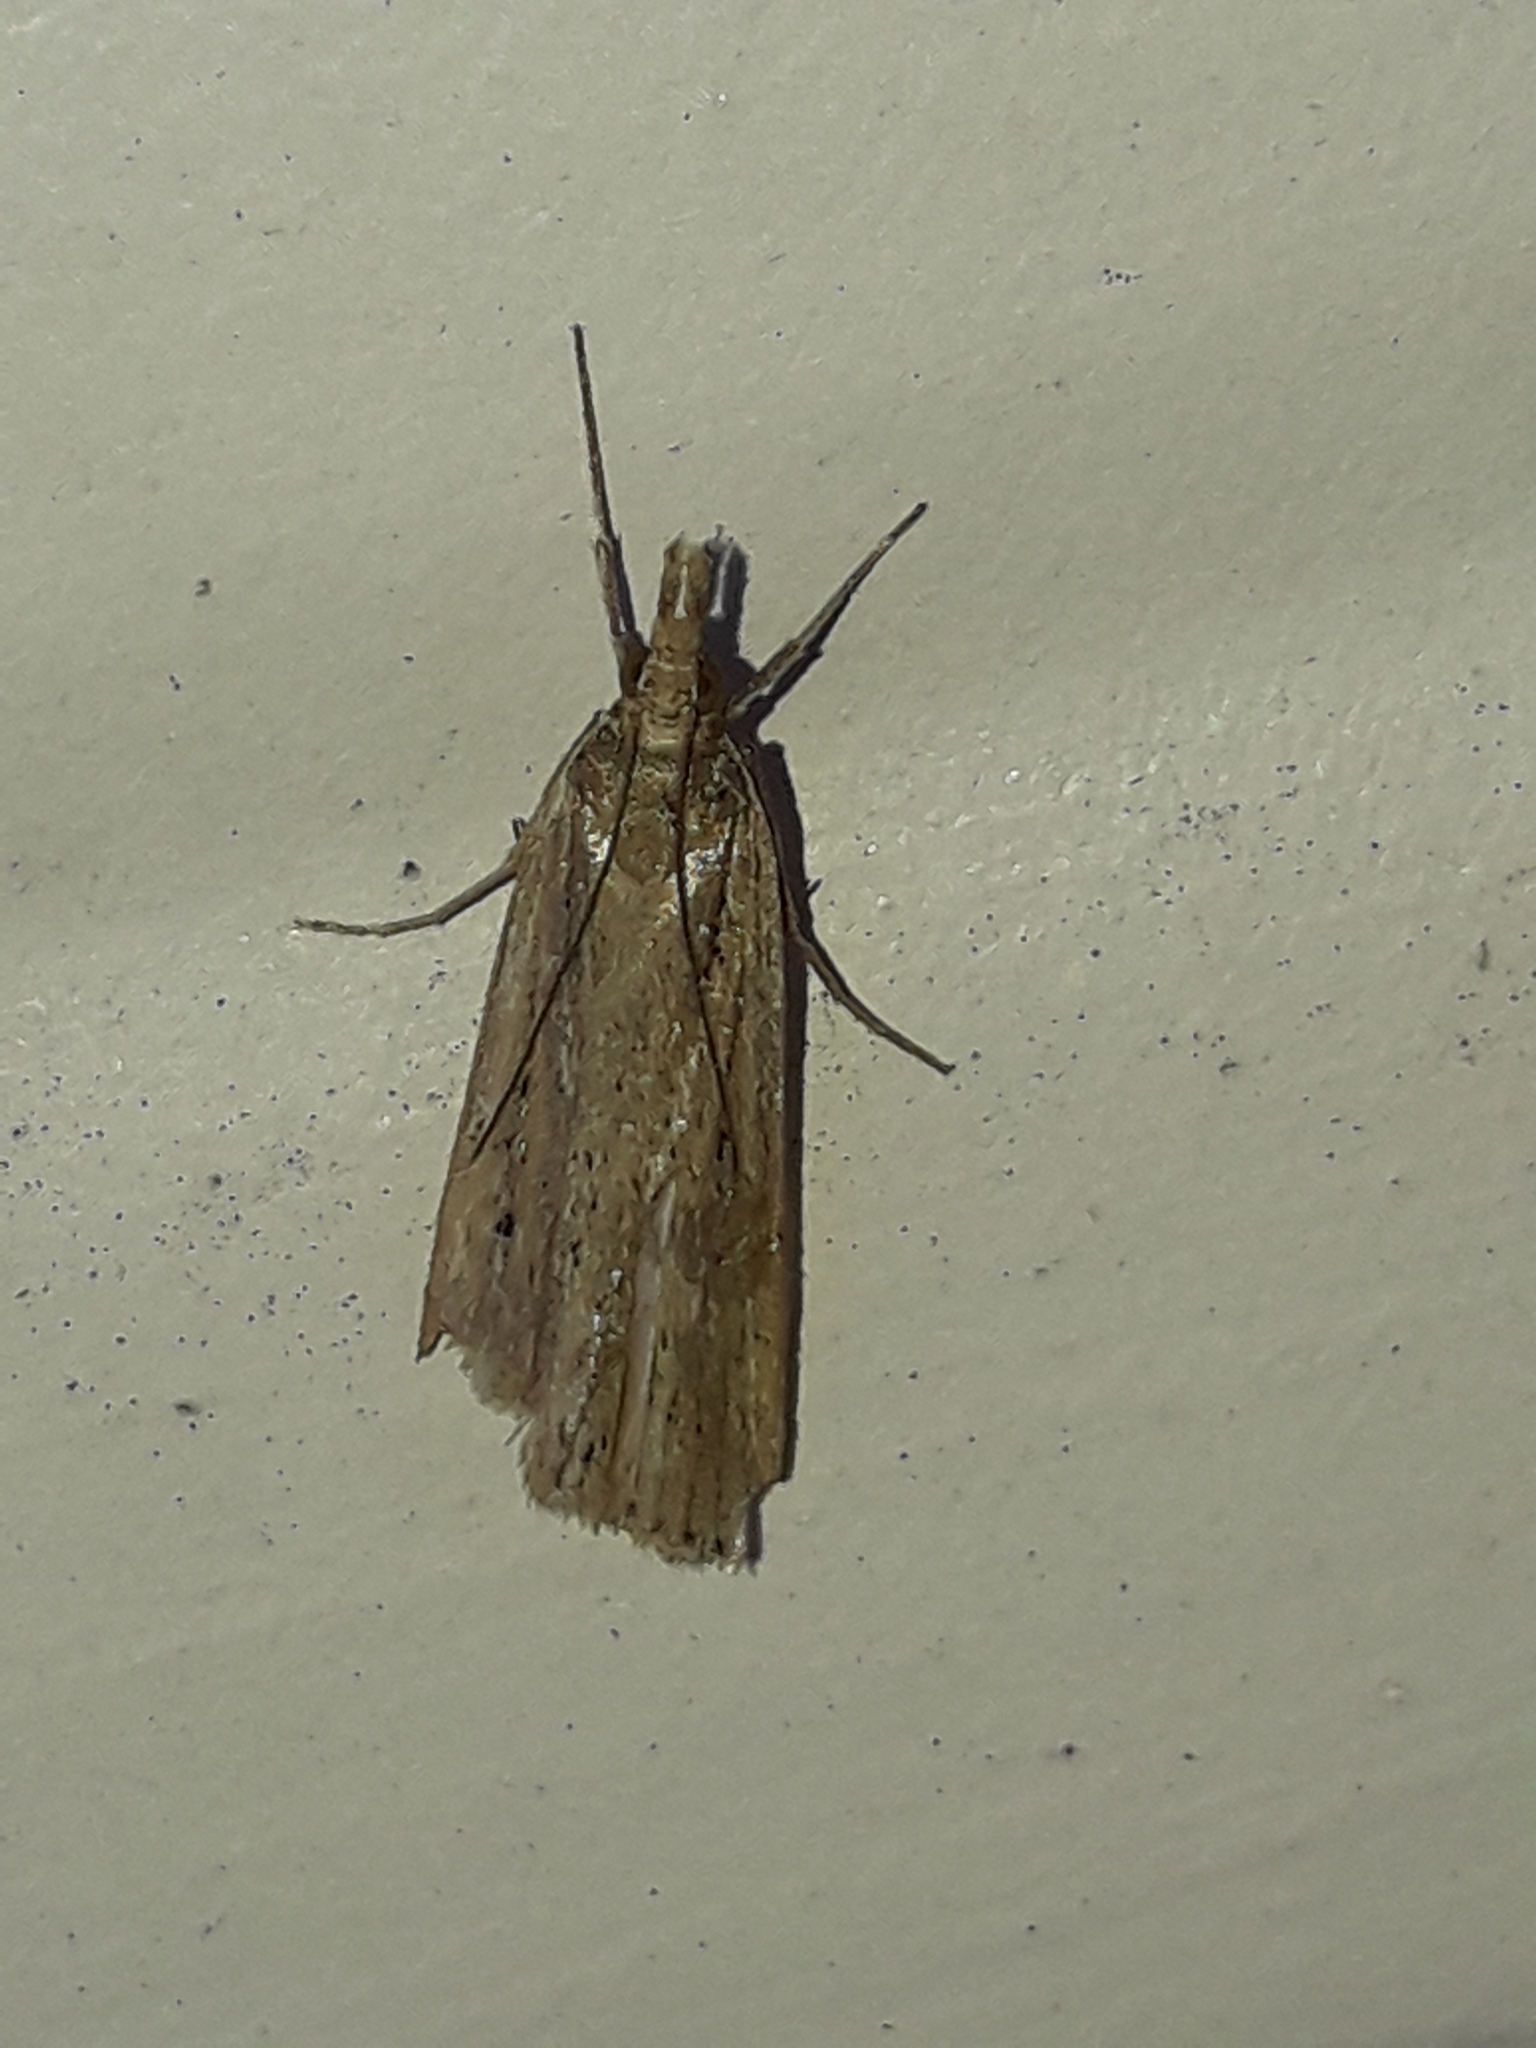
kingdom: Animalia
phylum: Arthropoda
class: Insecta
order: Lepidoptera
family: Crambidae
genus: Eudonia
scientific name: Eudonia sabulosella
